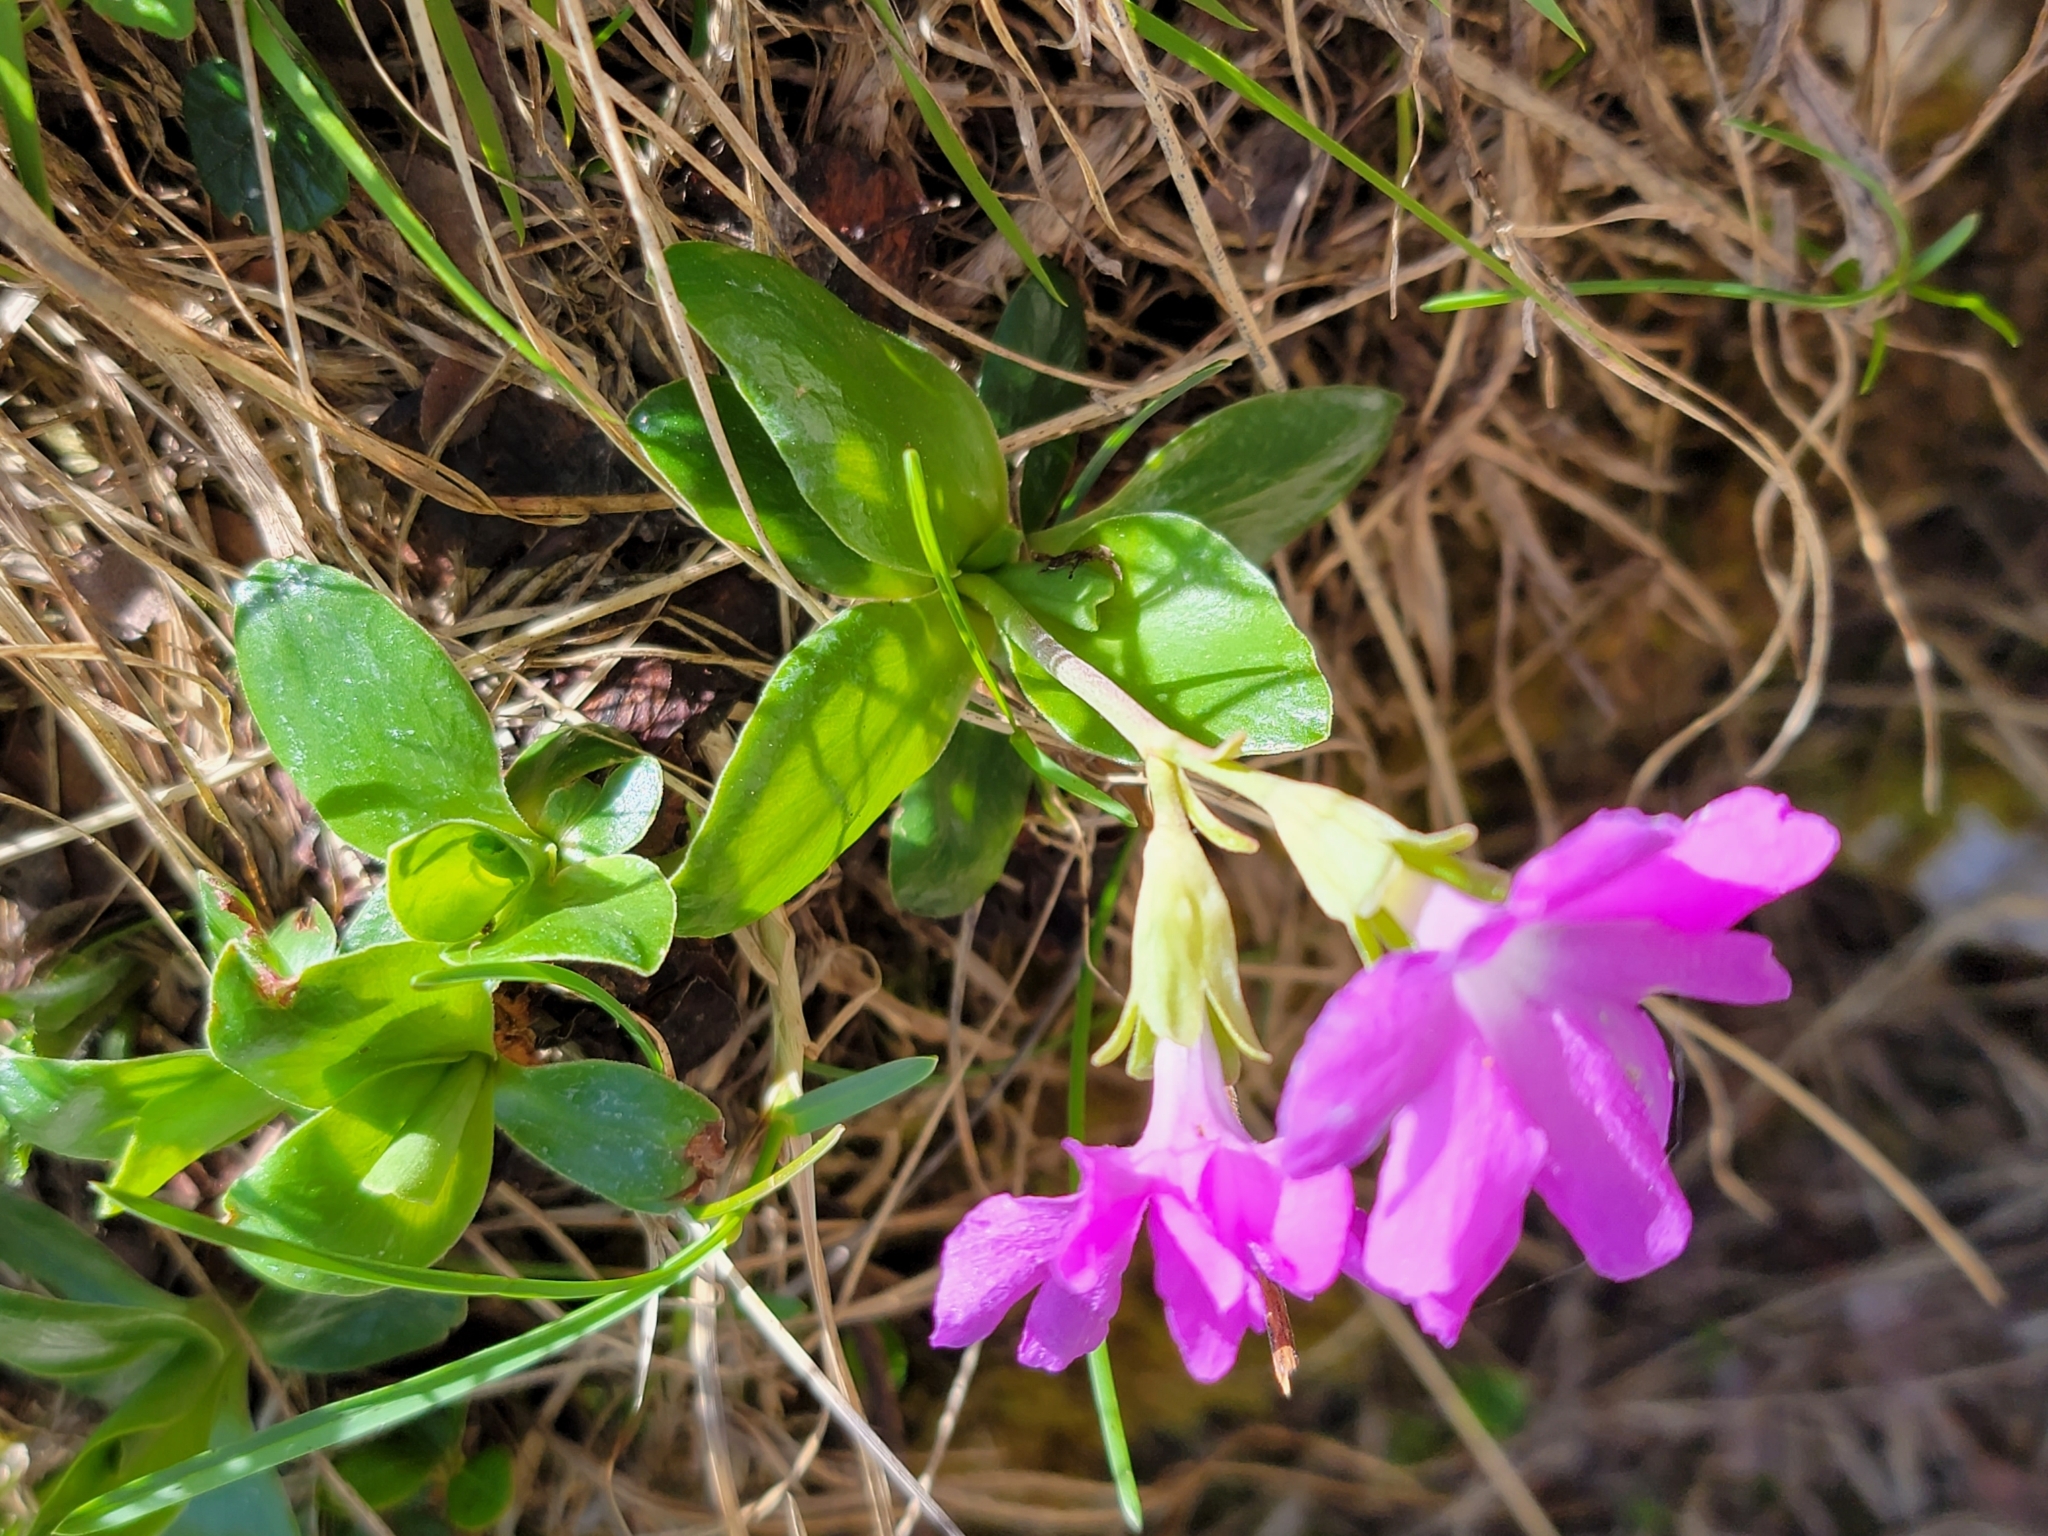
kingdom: Plantae
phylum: Tracheophyta
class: Magnoliopsida
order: Ericales
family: Primulaceae
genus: Primula
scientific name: Primula clusiana
